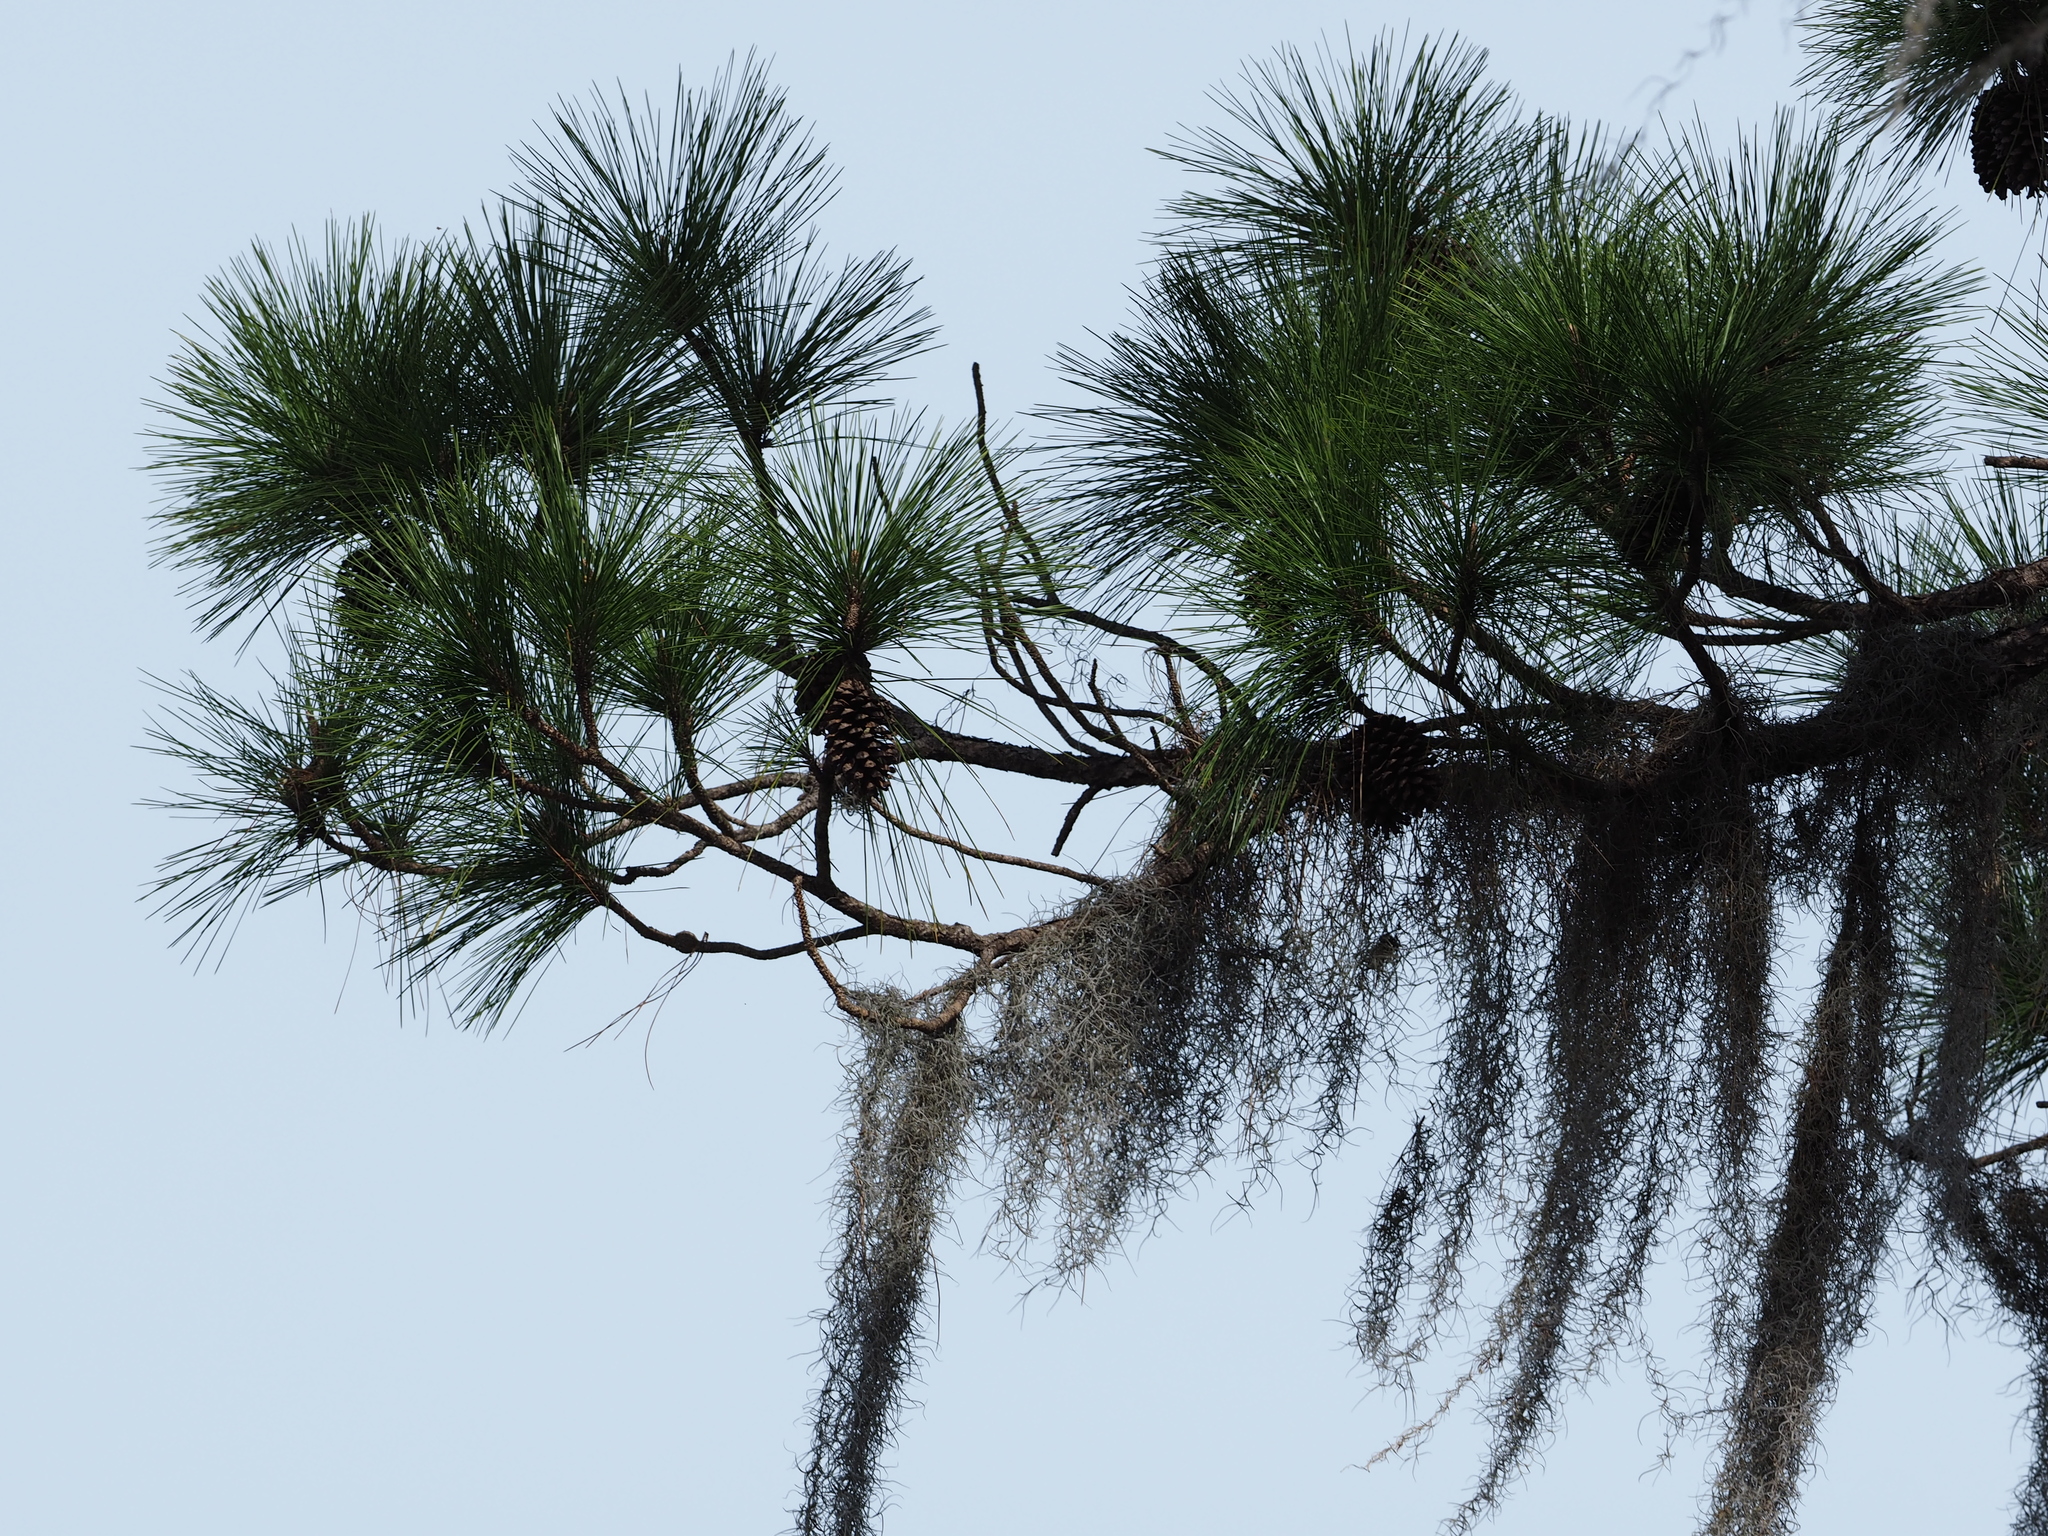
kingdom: Plantae
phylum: Tracheophyta
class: Pinopsida
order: Pinales
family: Pinaceae
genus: Pinus
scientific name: Pinus elliottii
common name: Slash pine
